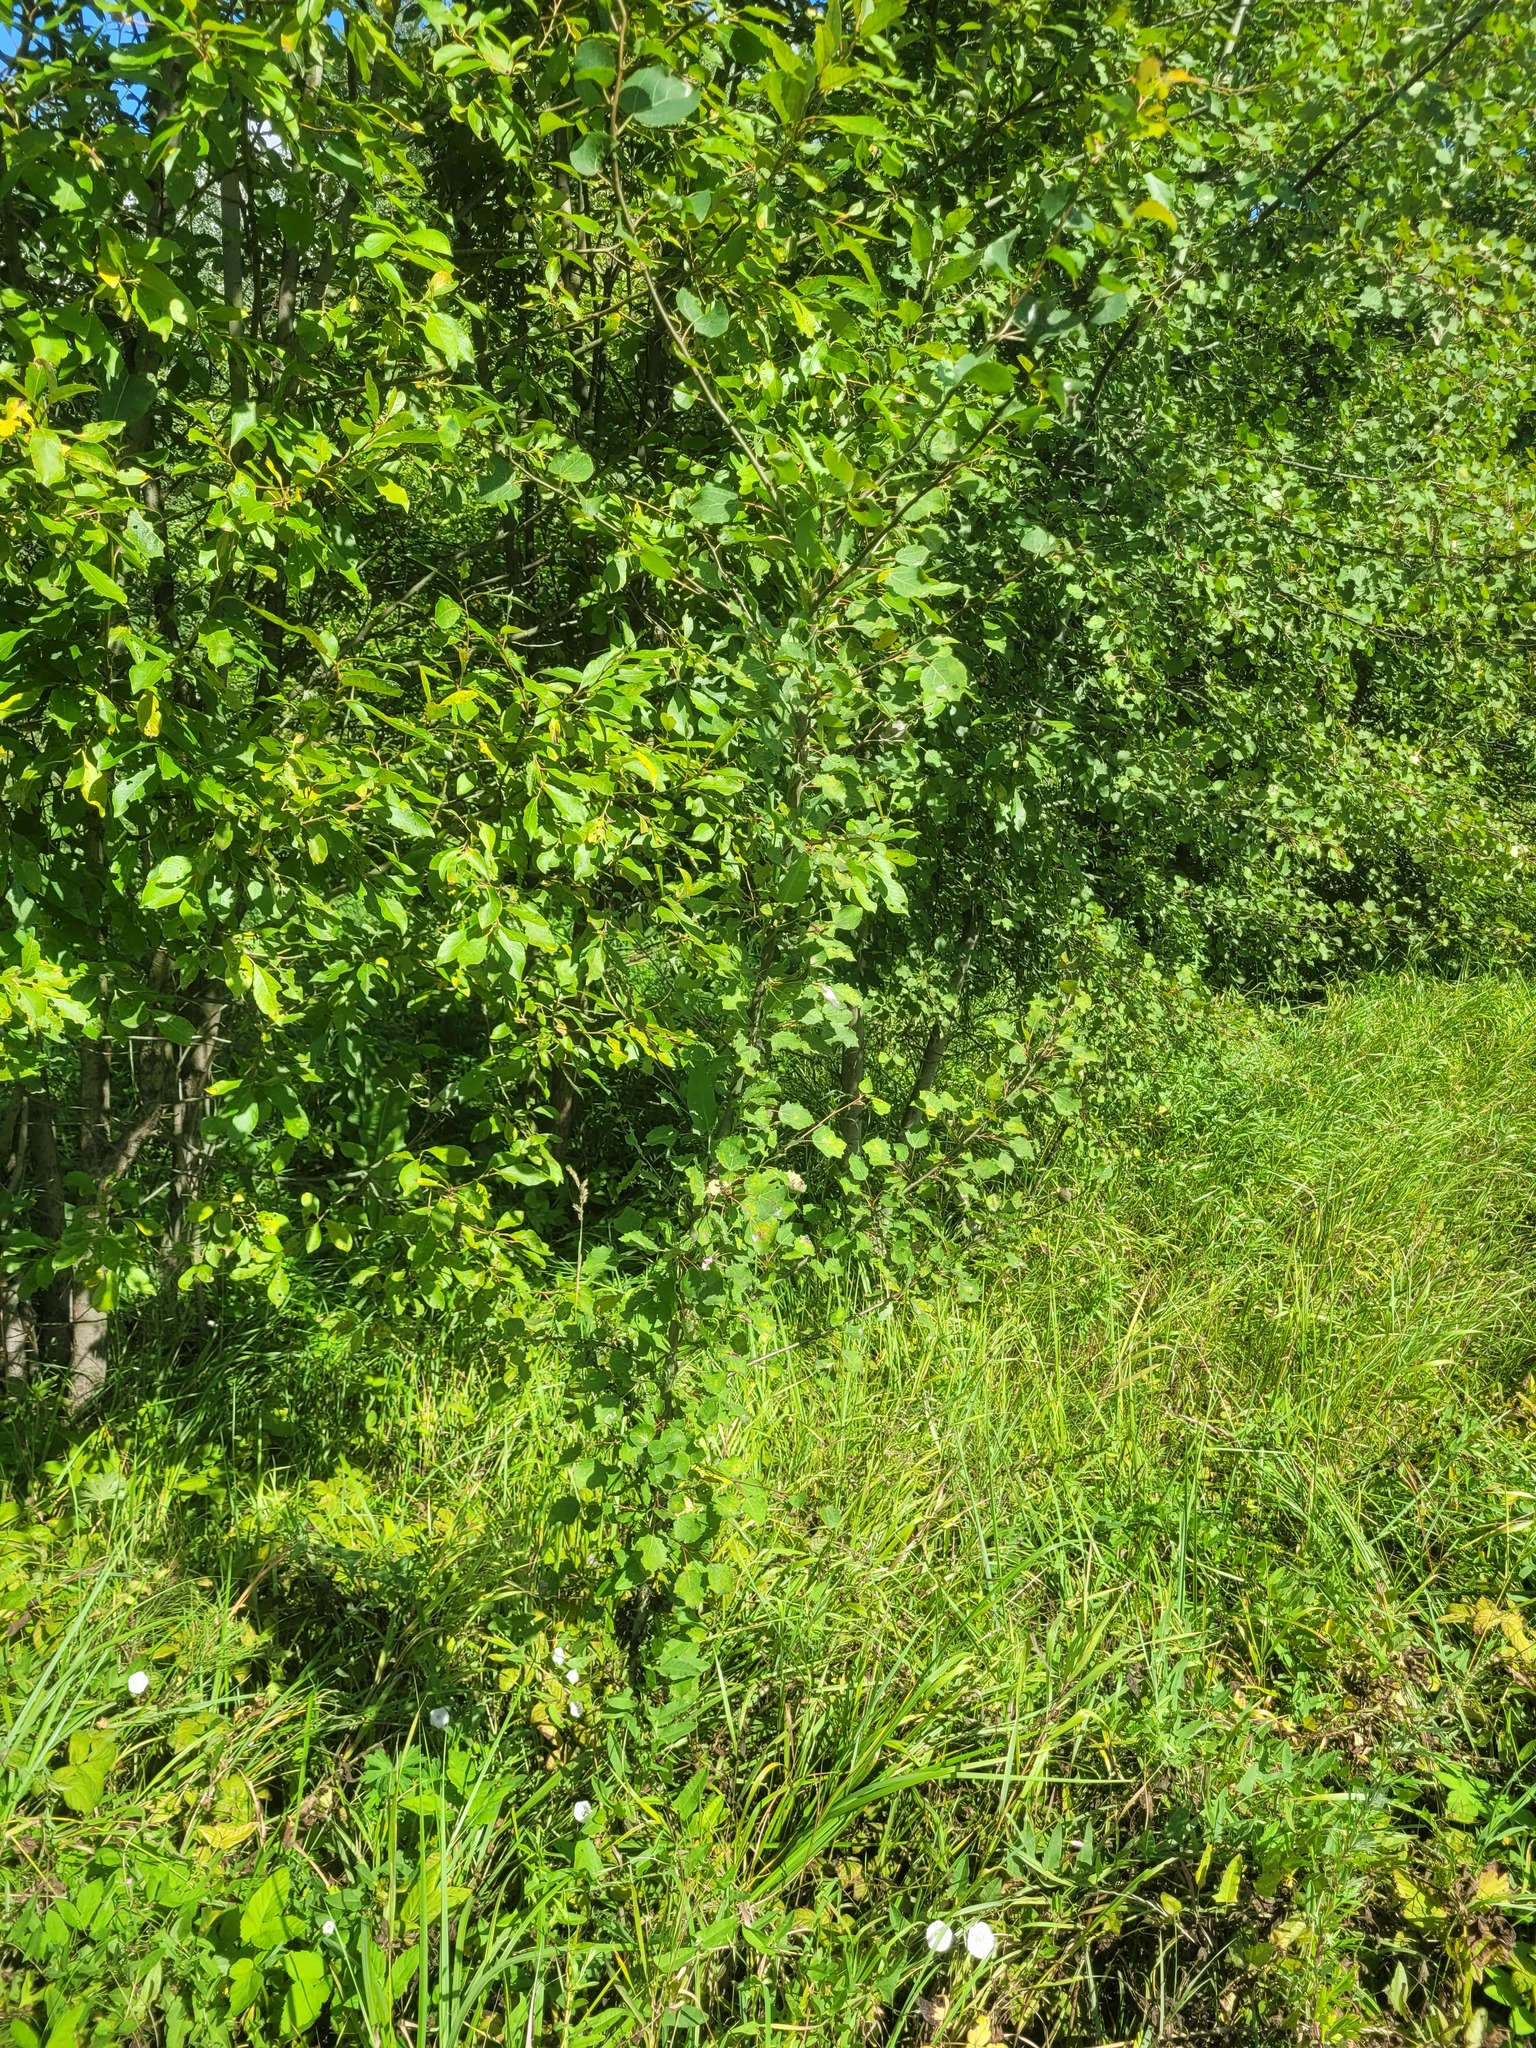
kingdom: Plantae
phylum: Tracheophyta
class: Magnoliopsida
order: Malpighiales
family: Salicaceae
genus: Populus
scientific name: Populus tremula
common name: European aspen
